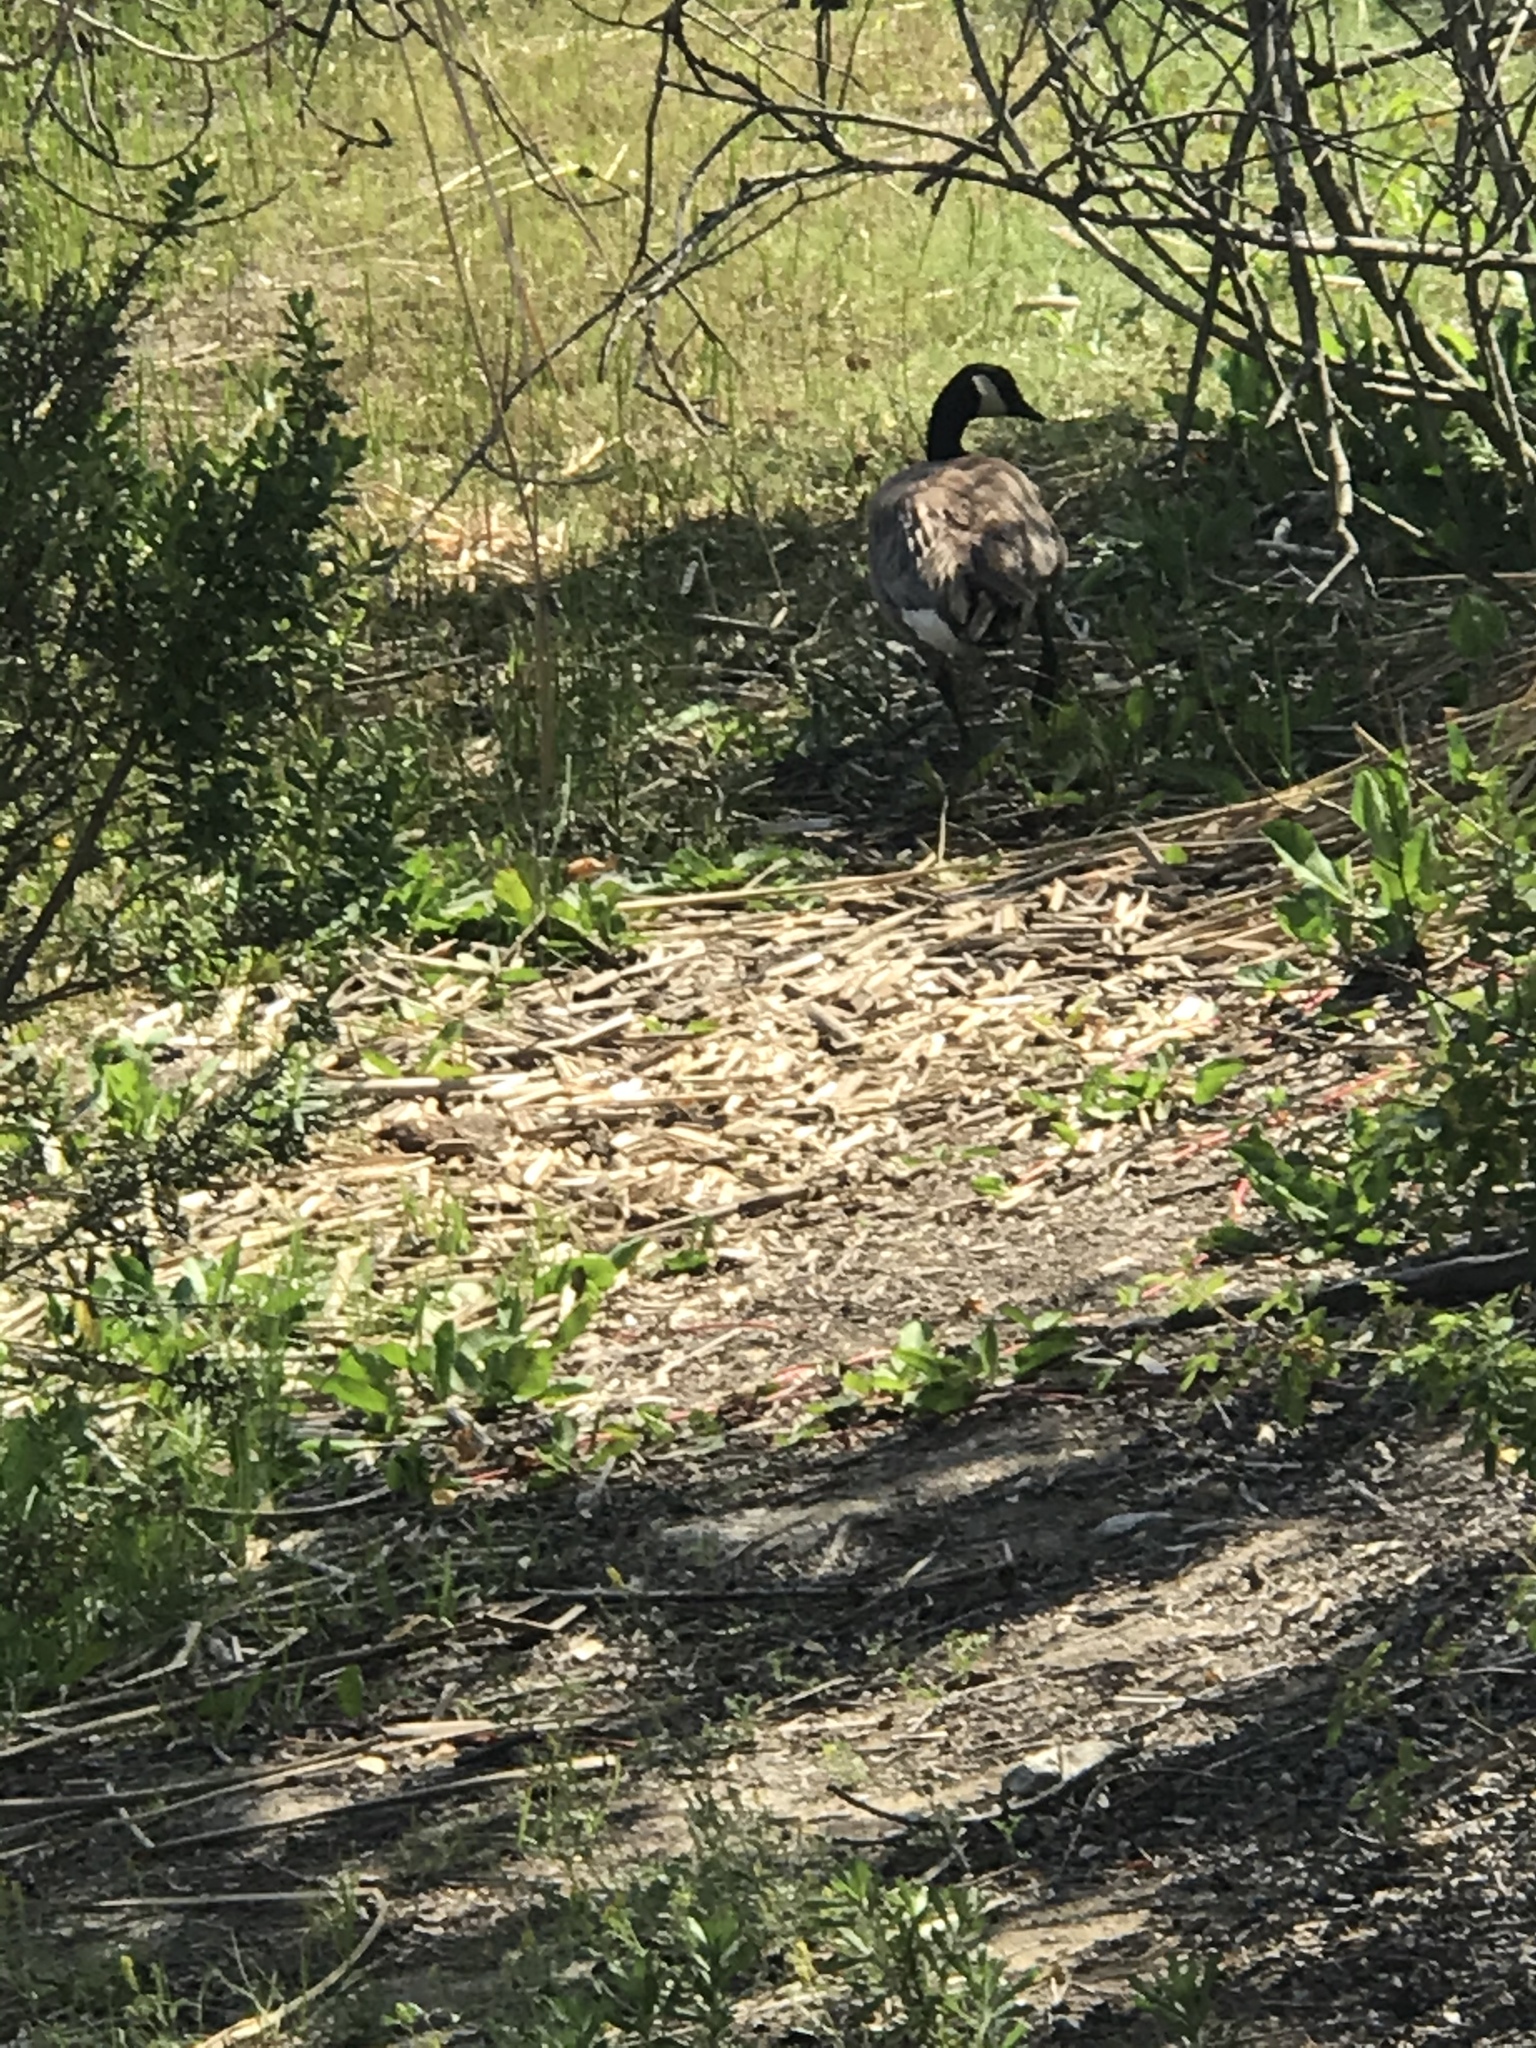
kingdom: Animalia
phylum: Chordata
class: Aves
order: Anseriformes
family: Anatidae
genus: Branta
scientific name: Branta canadensis
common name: Canada goose
